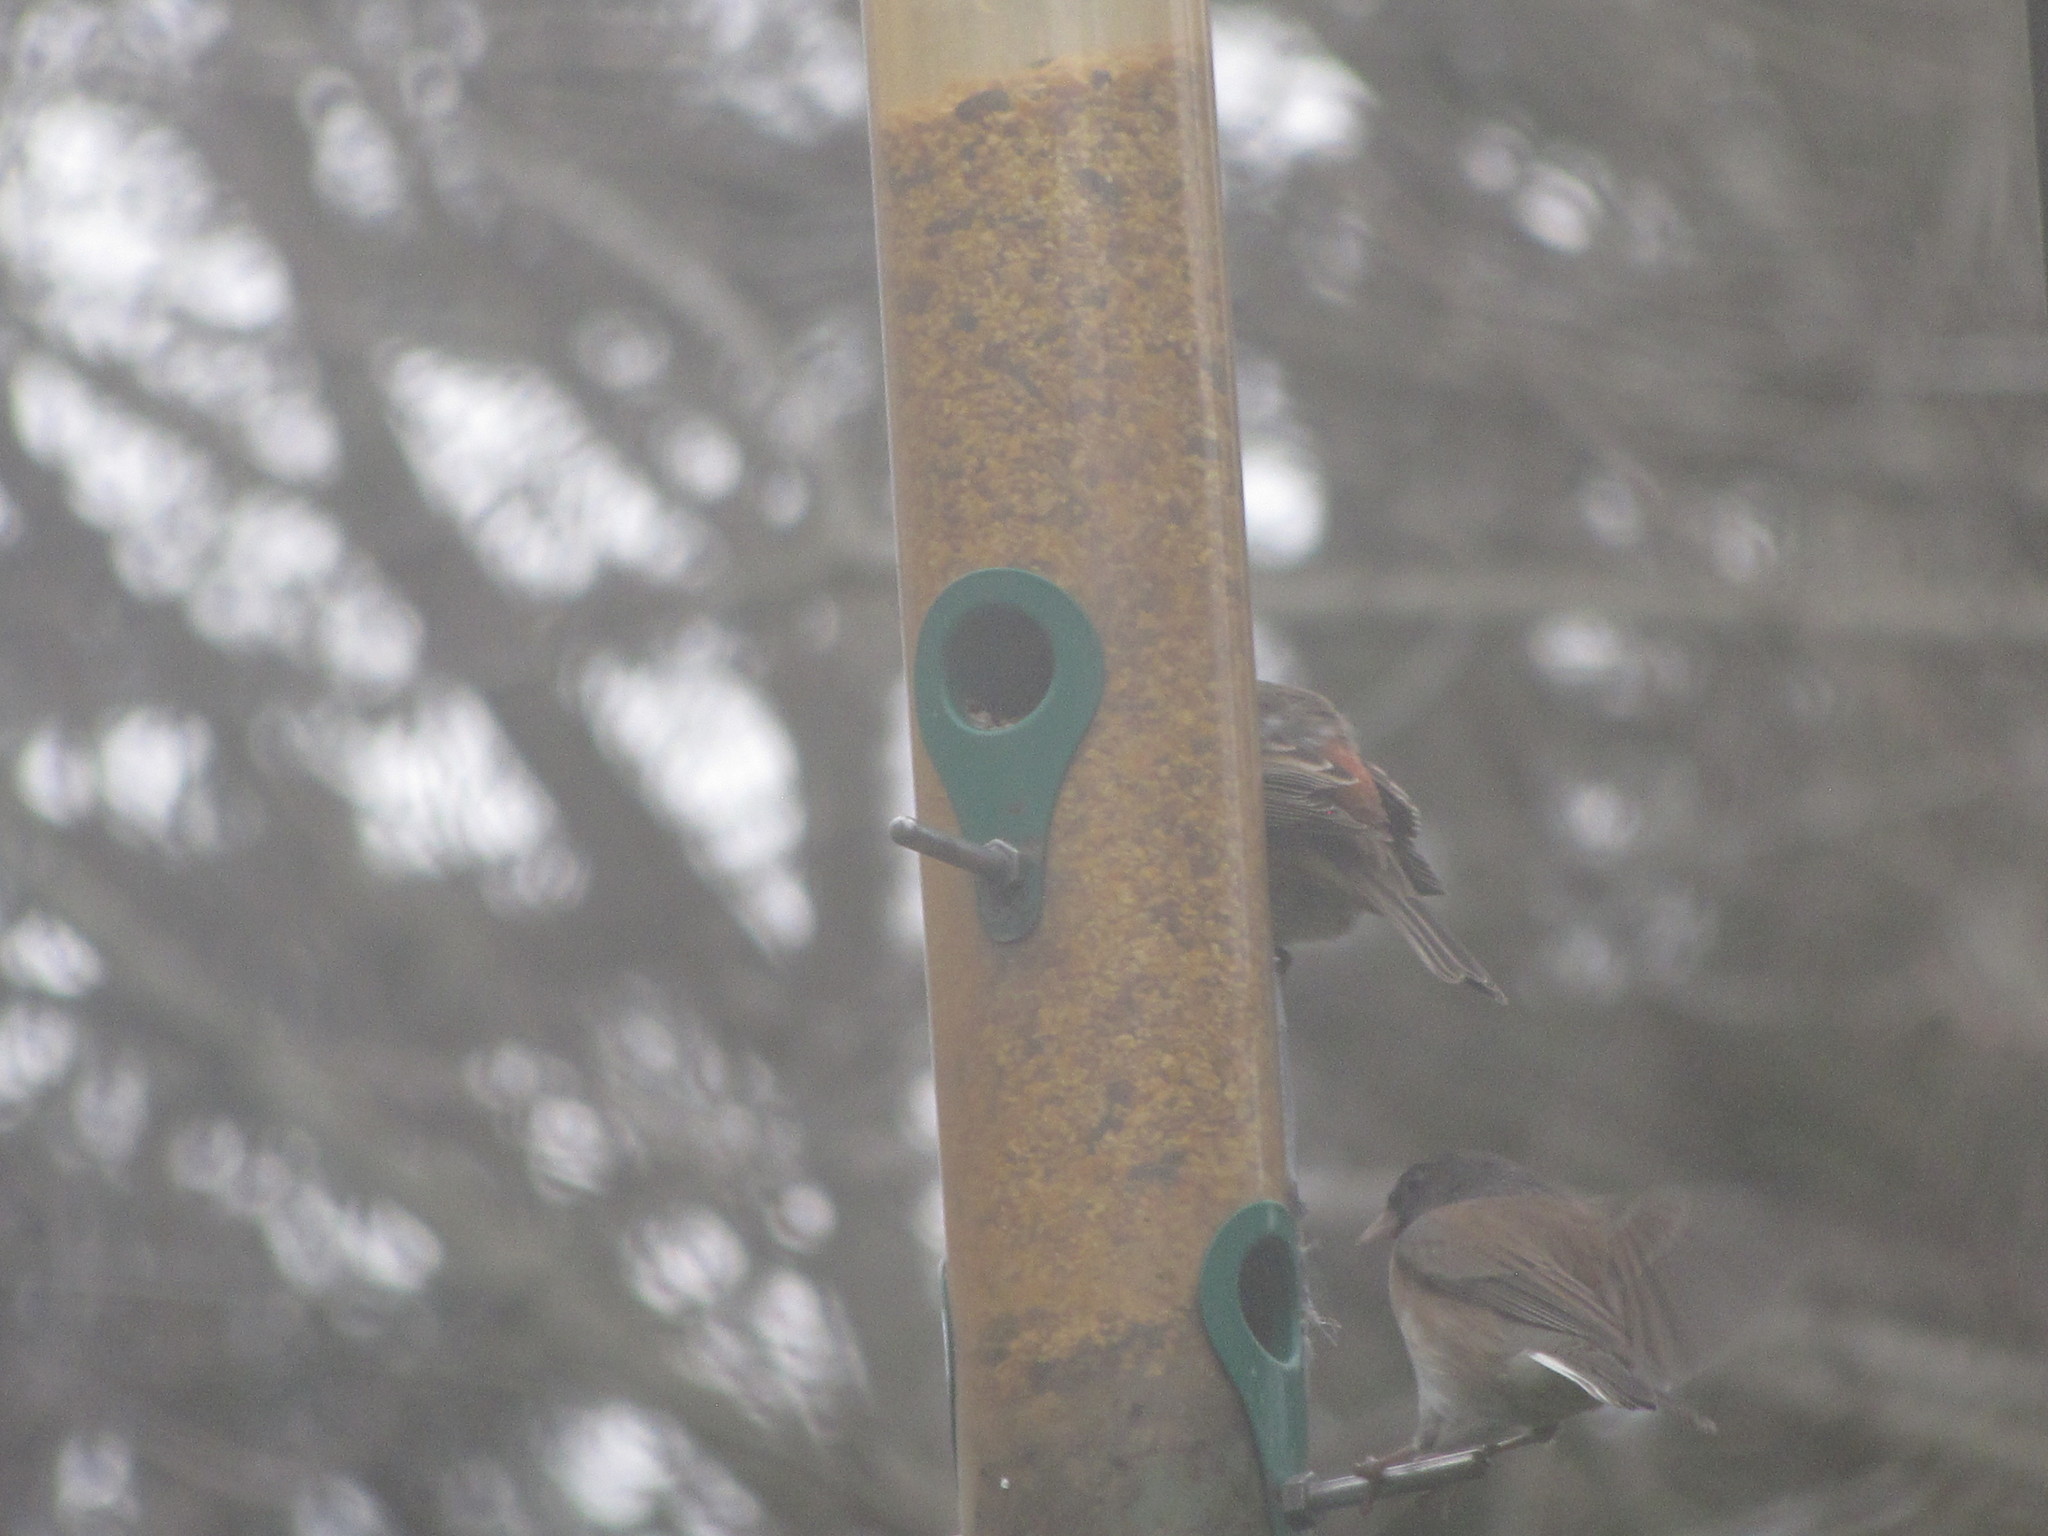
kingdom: Animalia
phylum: Chordata
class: Aves
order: Passeriformes
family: Passerellidae
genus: Junco
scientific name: Junco hyemalis
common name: Dark-eyed junco
